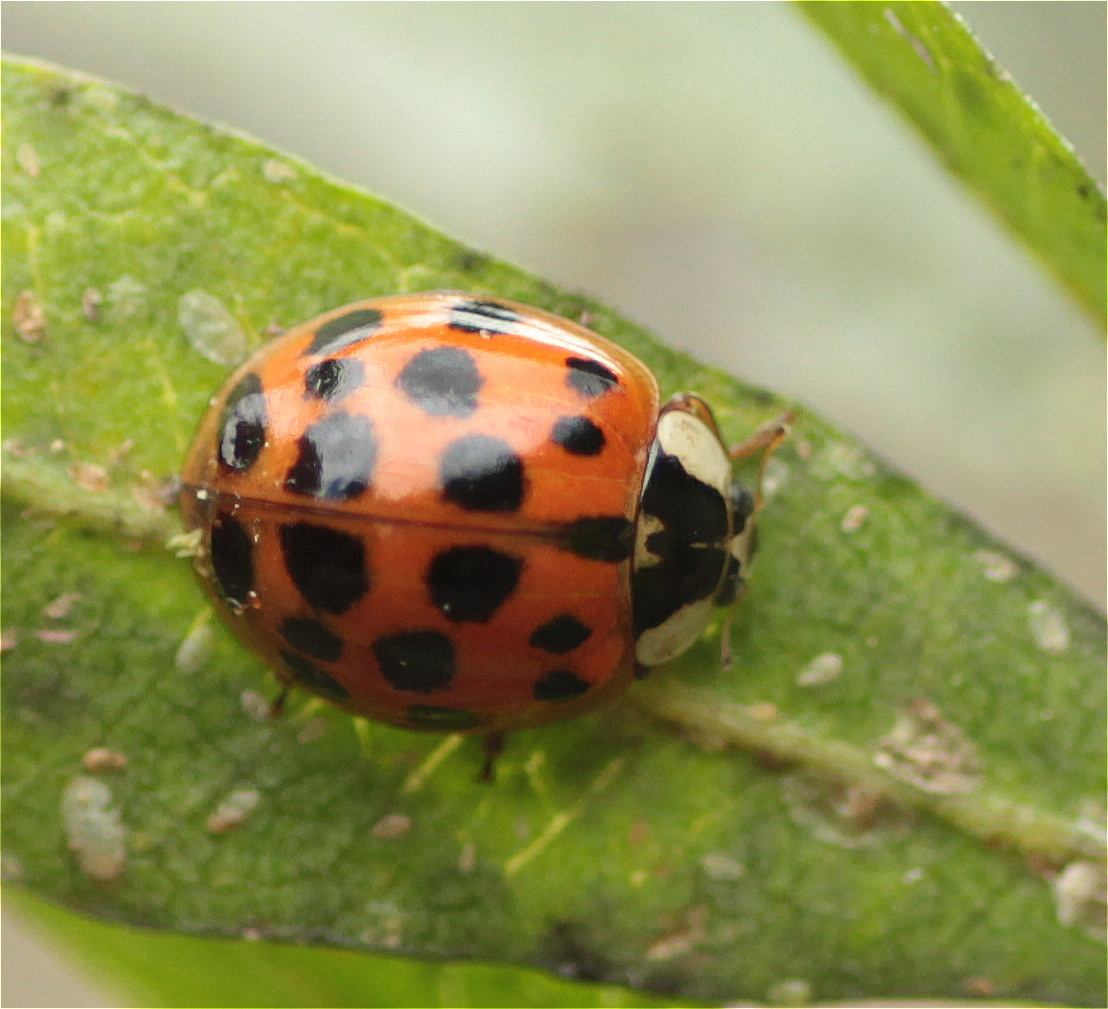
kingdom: Animalia
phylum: Arthropoda
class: Insecta
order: Coleoptera
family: Coccinellidae
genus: Harmonia
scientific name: Harmonia axyridis
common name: Harlequin ladybird
